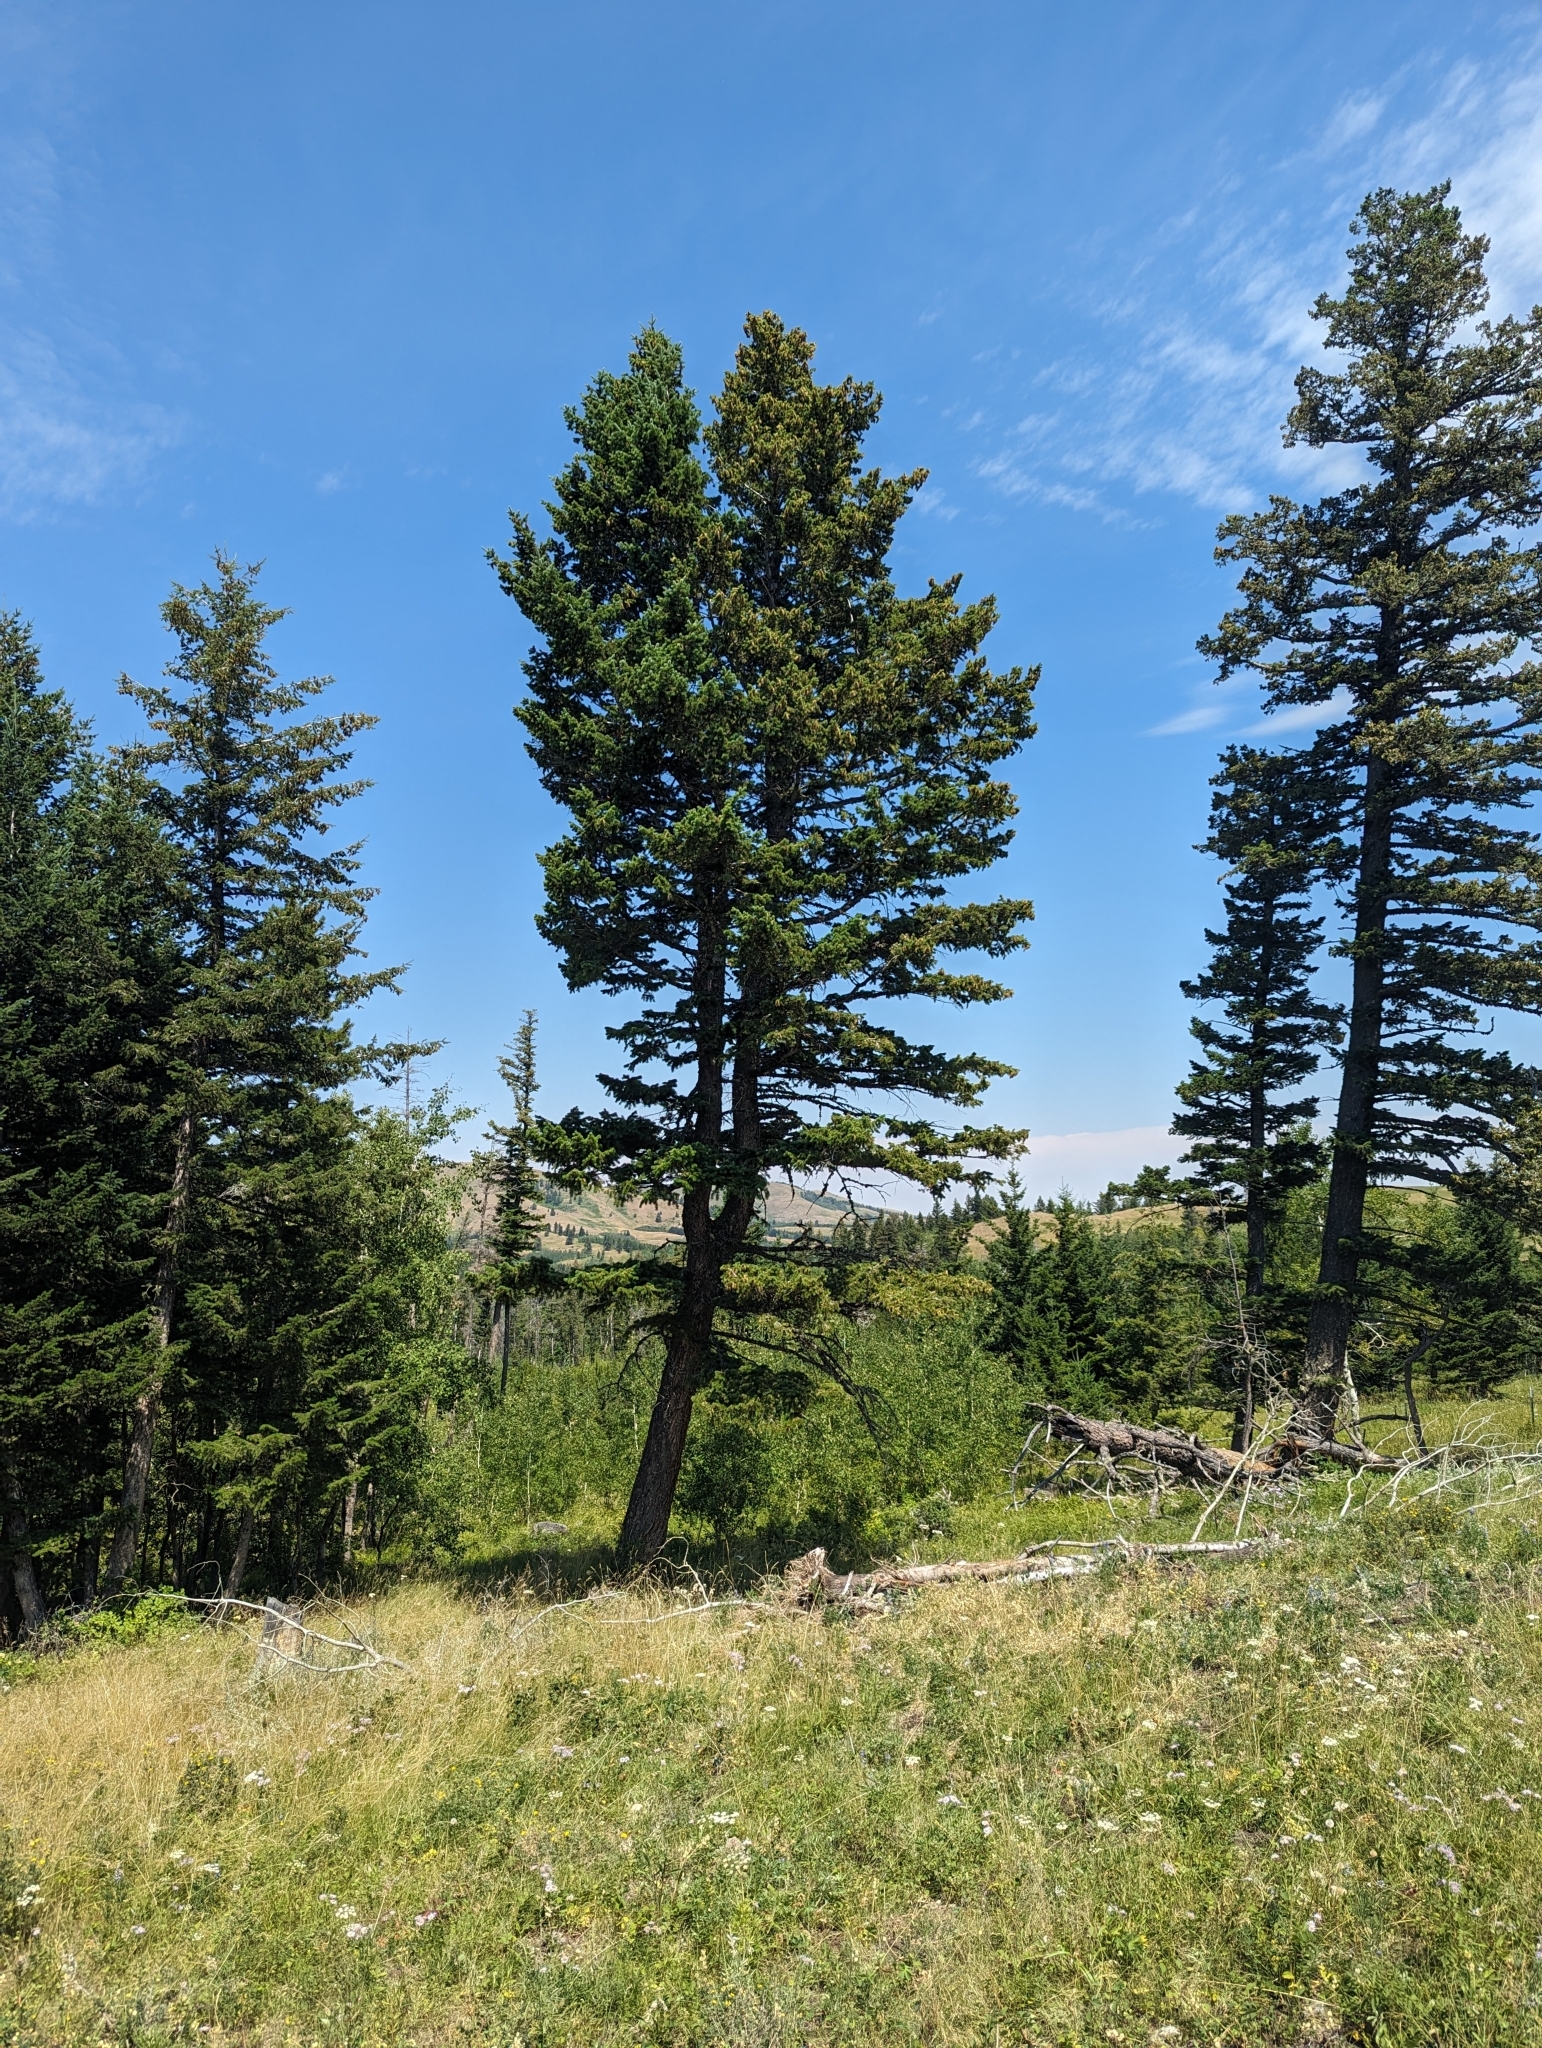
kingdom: Plantae
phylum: Tracheophyta
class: Pinopsida
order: Pinales
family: Pinaceae
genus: Pseudotsuga
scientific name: Pseudotsuga menziesii
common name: Douglas fir
